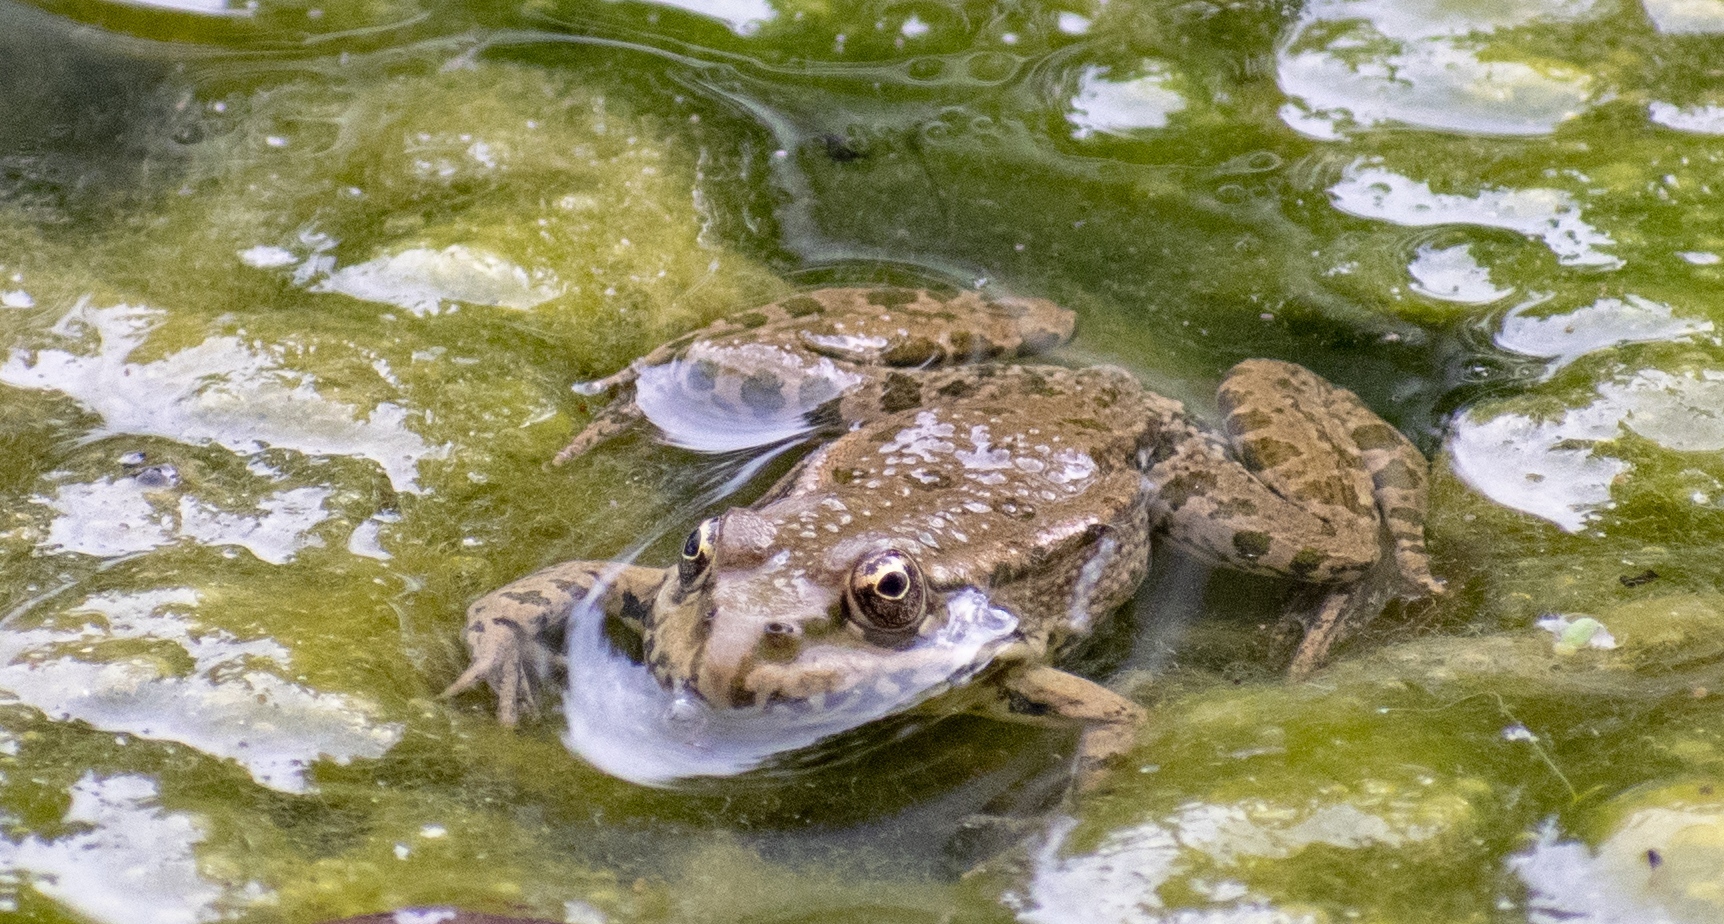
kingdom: Animalia
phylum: Chordata
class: Amphibia
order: Anura
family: Ranidae
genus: Pelophylax
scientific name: Pelophylax
